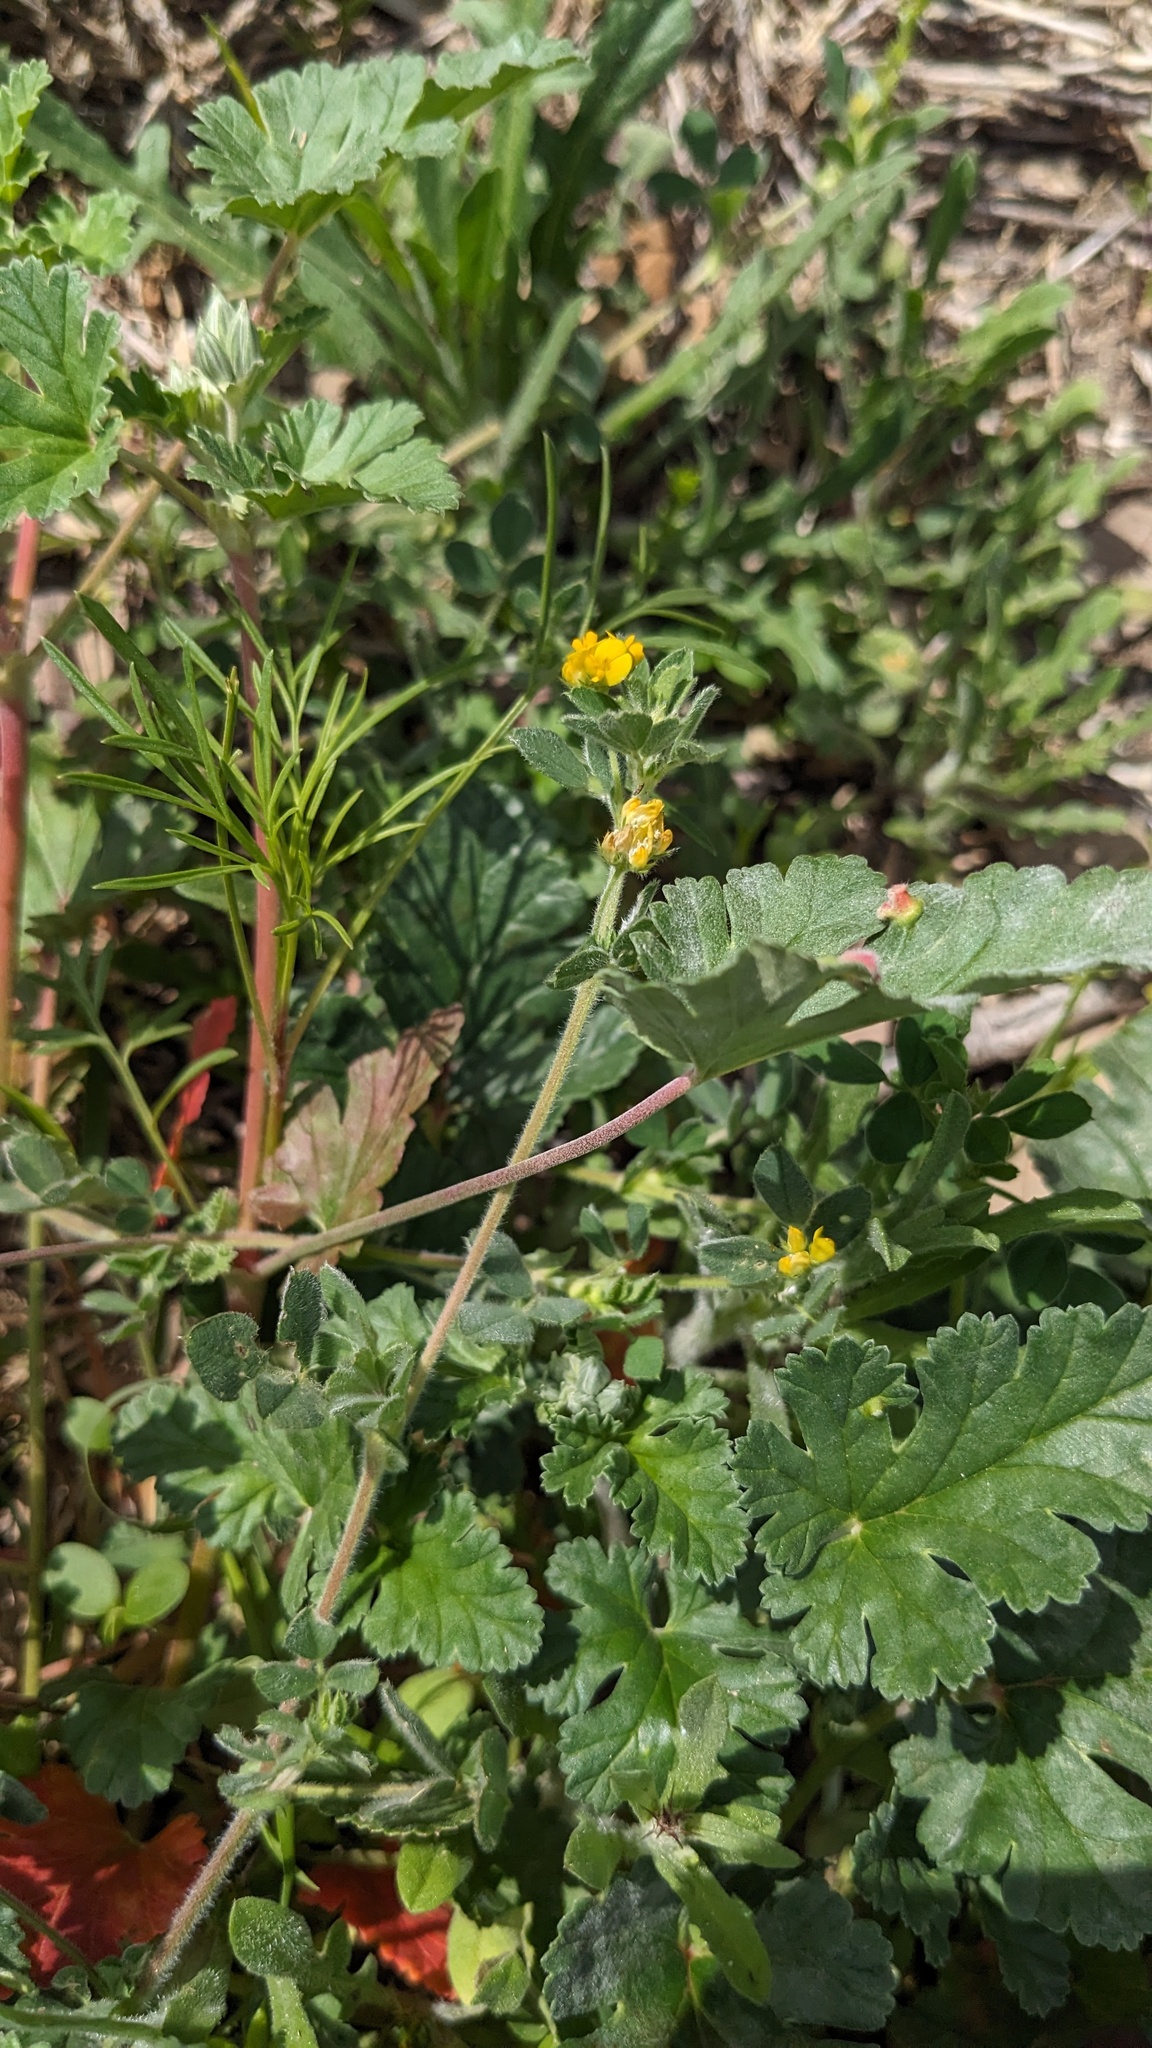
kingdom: Plantae
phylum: Tracheophyta
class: Magnoliopsida
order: Fabales
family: Fabaceae
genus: Medicago
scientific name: Medicago minima
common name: Little bur-clover
